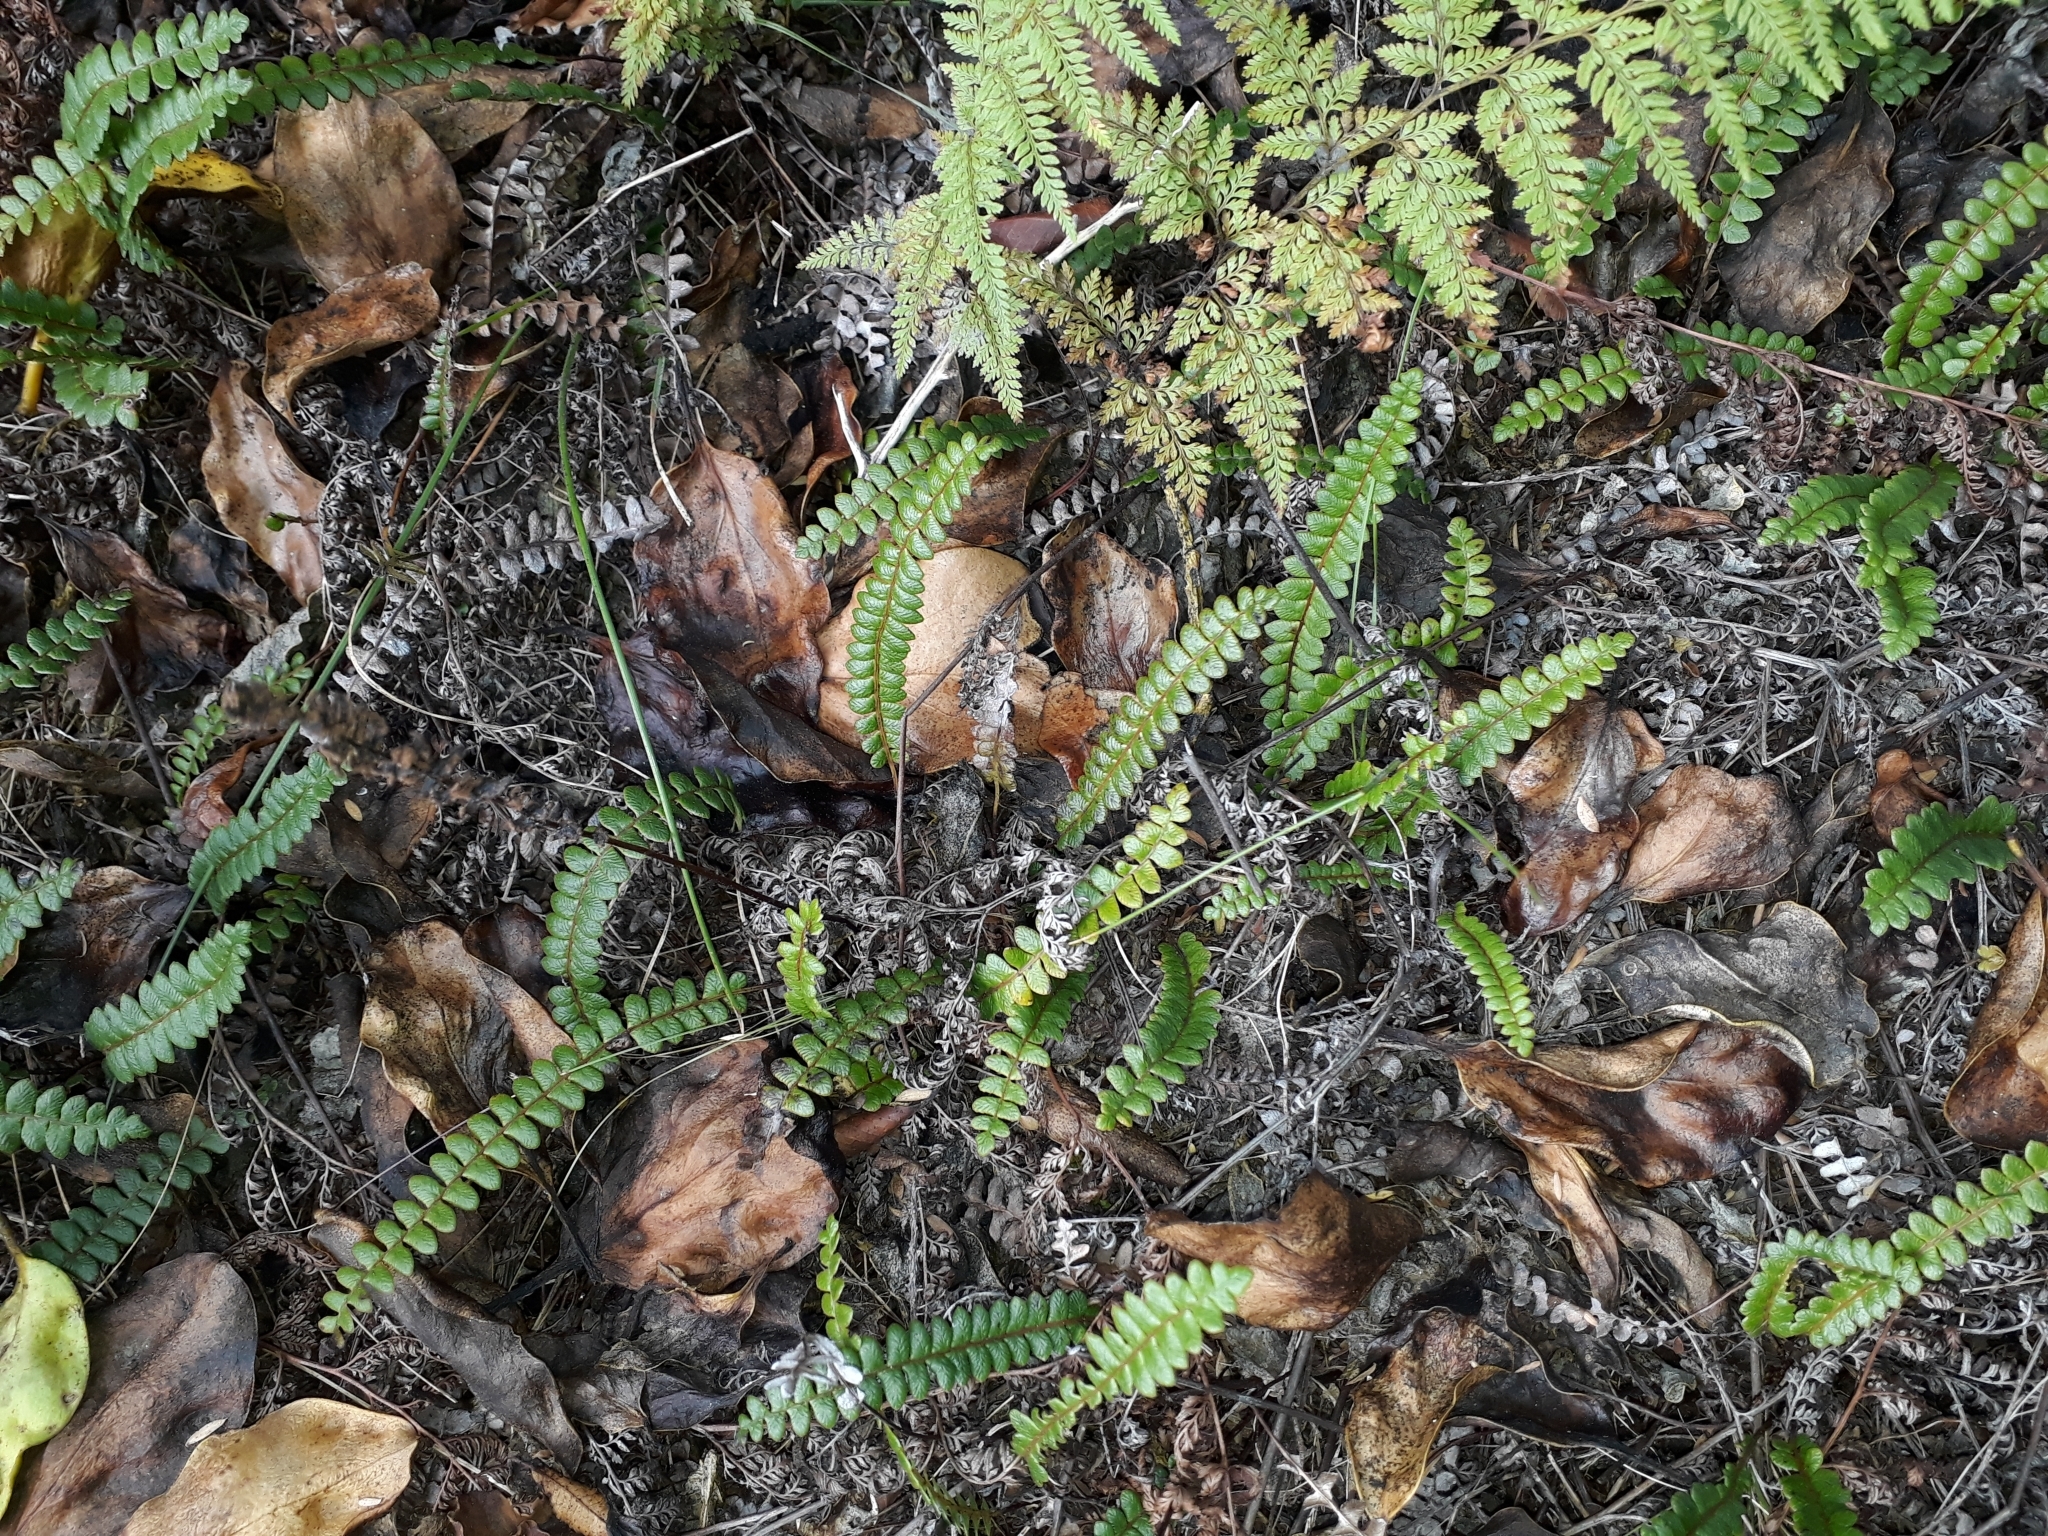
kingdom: Plantae
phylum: Tracheophyta
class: Polypodiopsida
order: Polypodiales
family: Blechnaceae
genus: Austroblechnum
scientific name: Austroblechnum penna-marina
